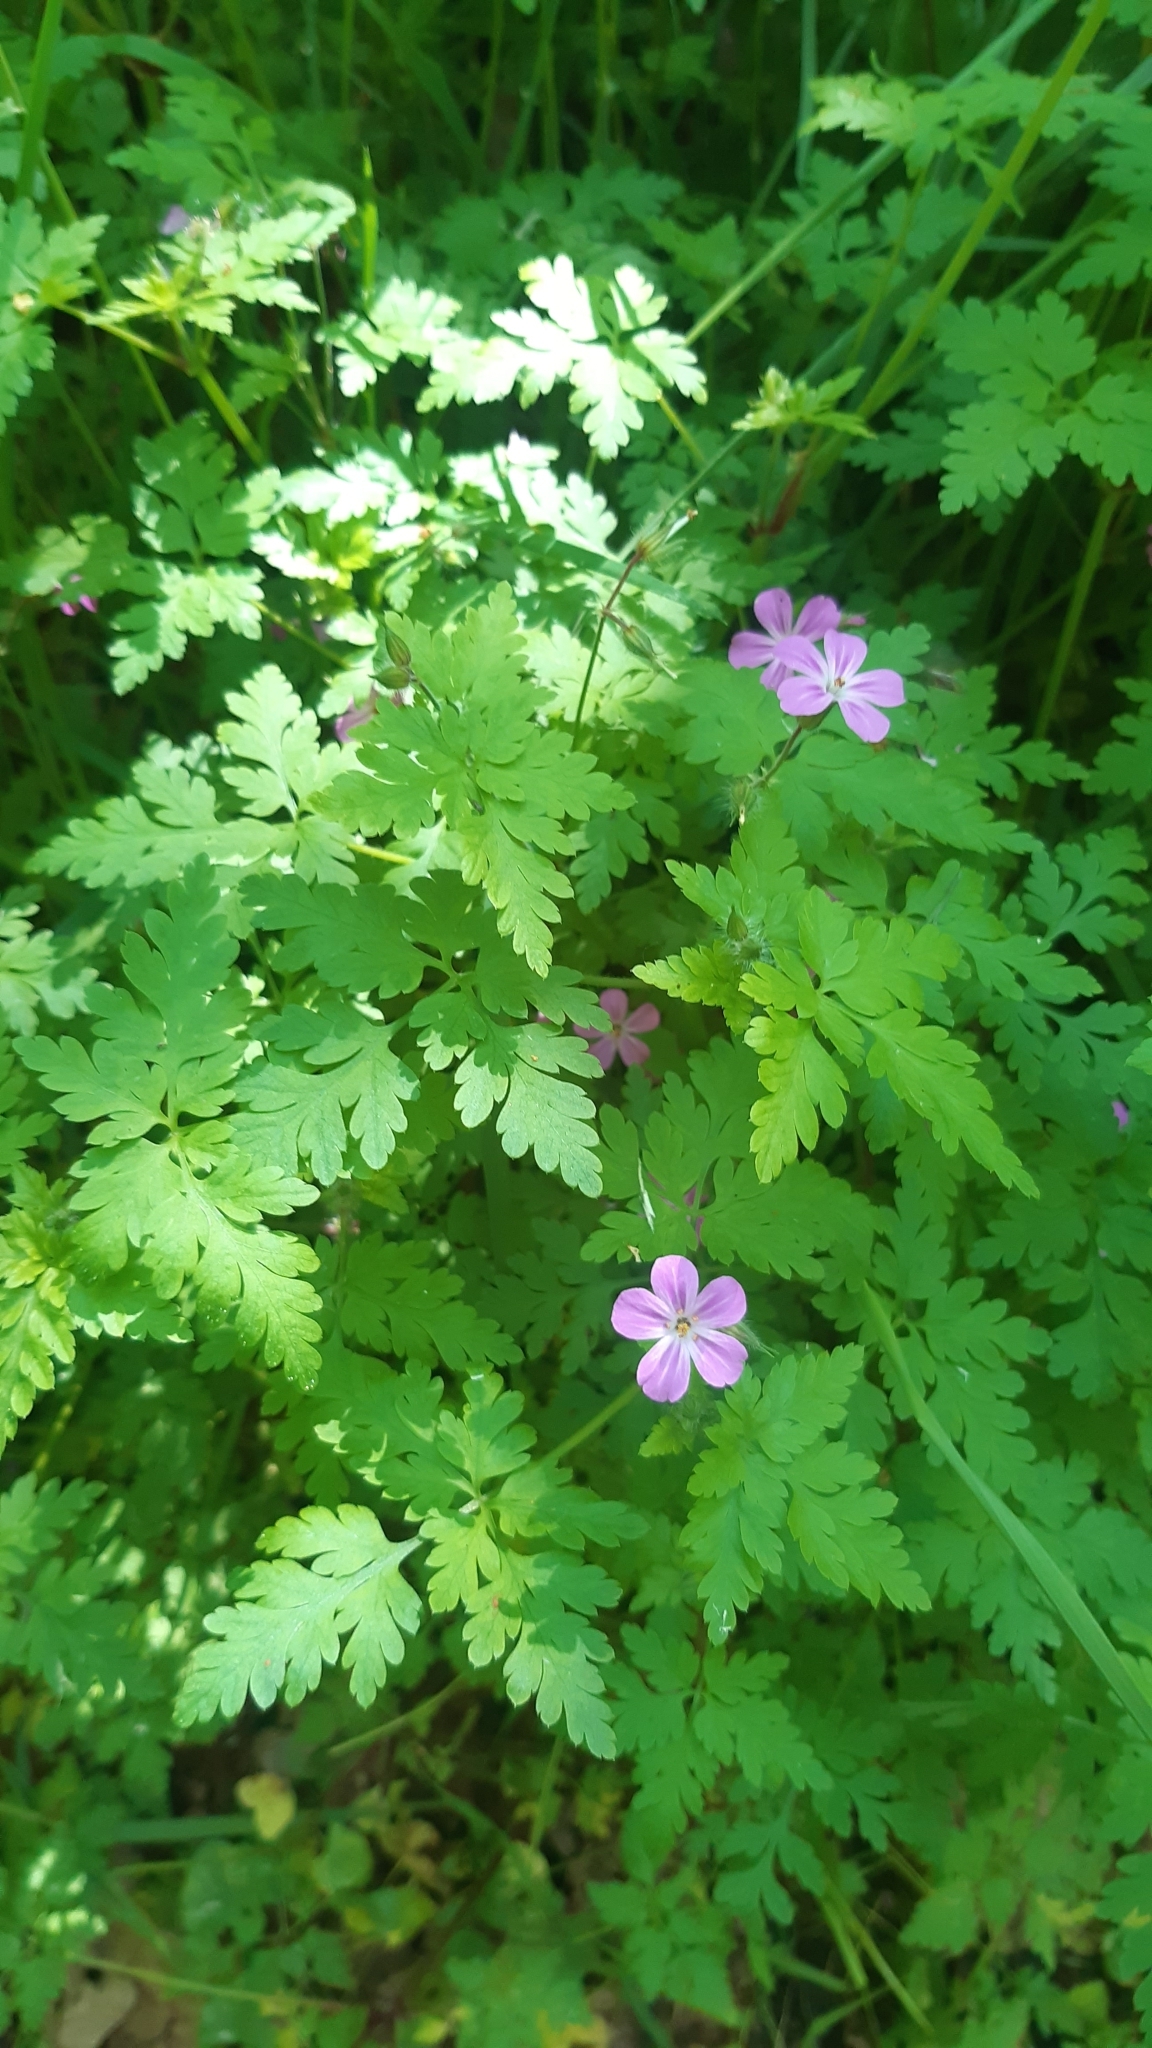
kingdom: Plantae
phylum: Tracheophyta
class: Magnoliopsida
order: Geraniales
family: Geraniaceae
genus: Geranium
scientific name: Geranium robertianum
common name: Herb-robert
